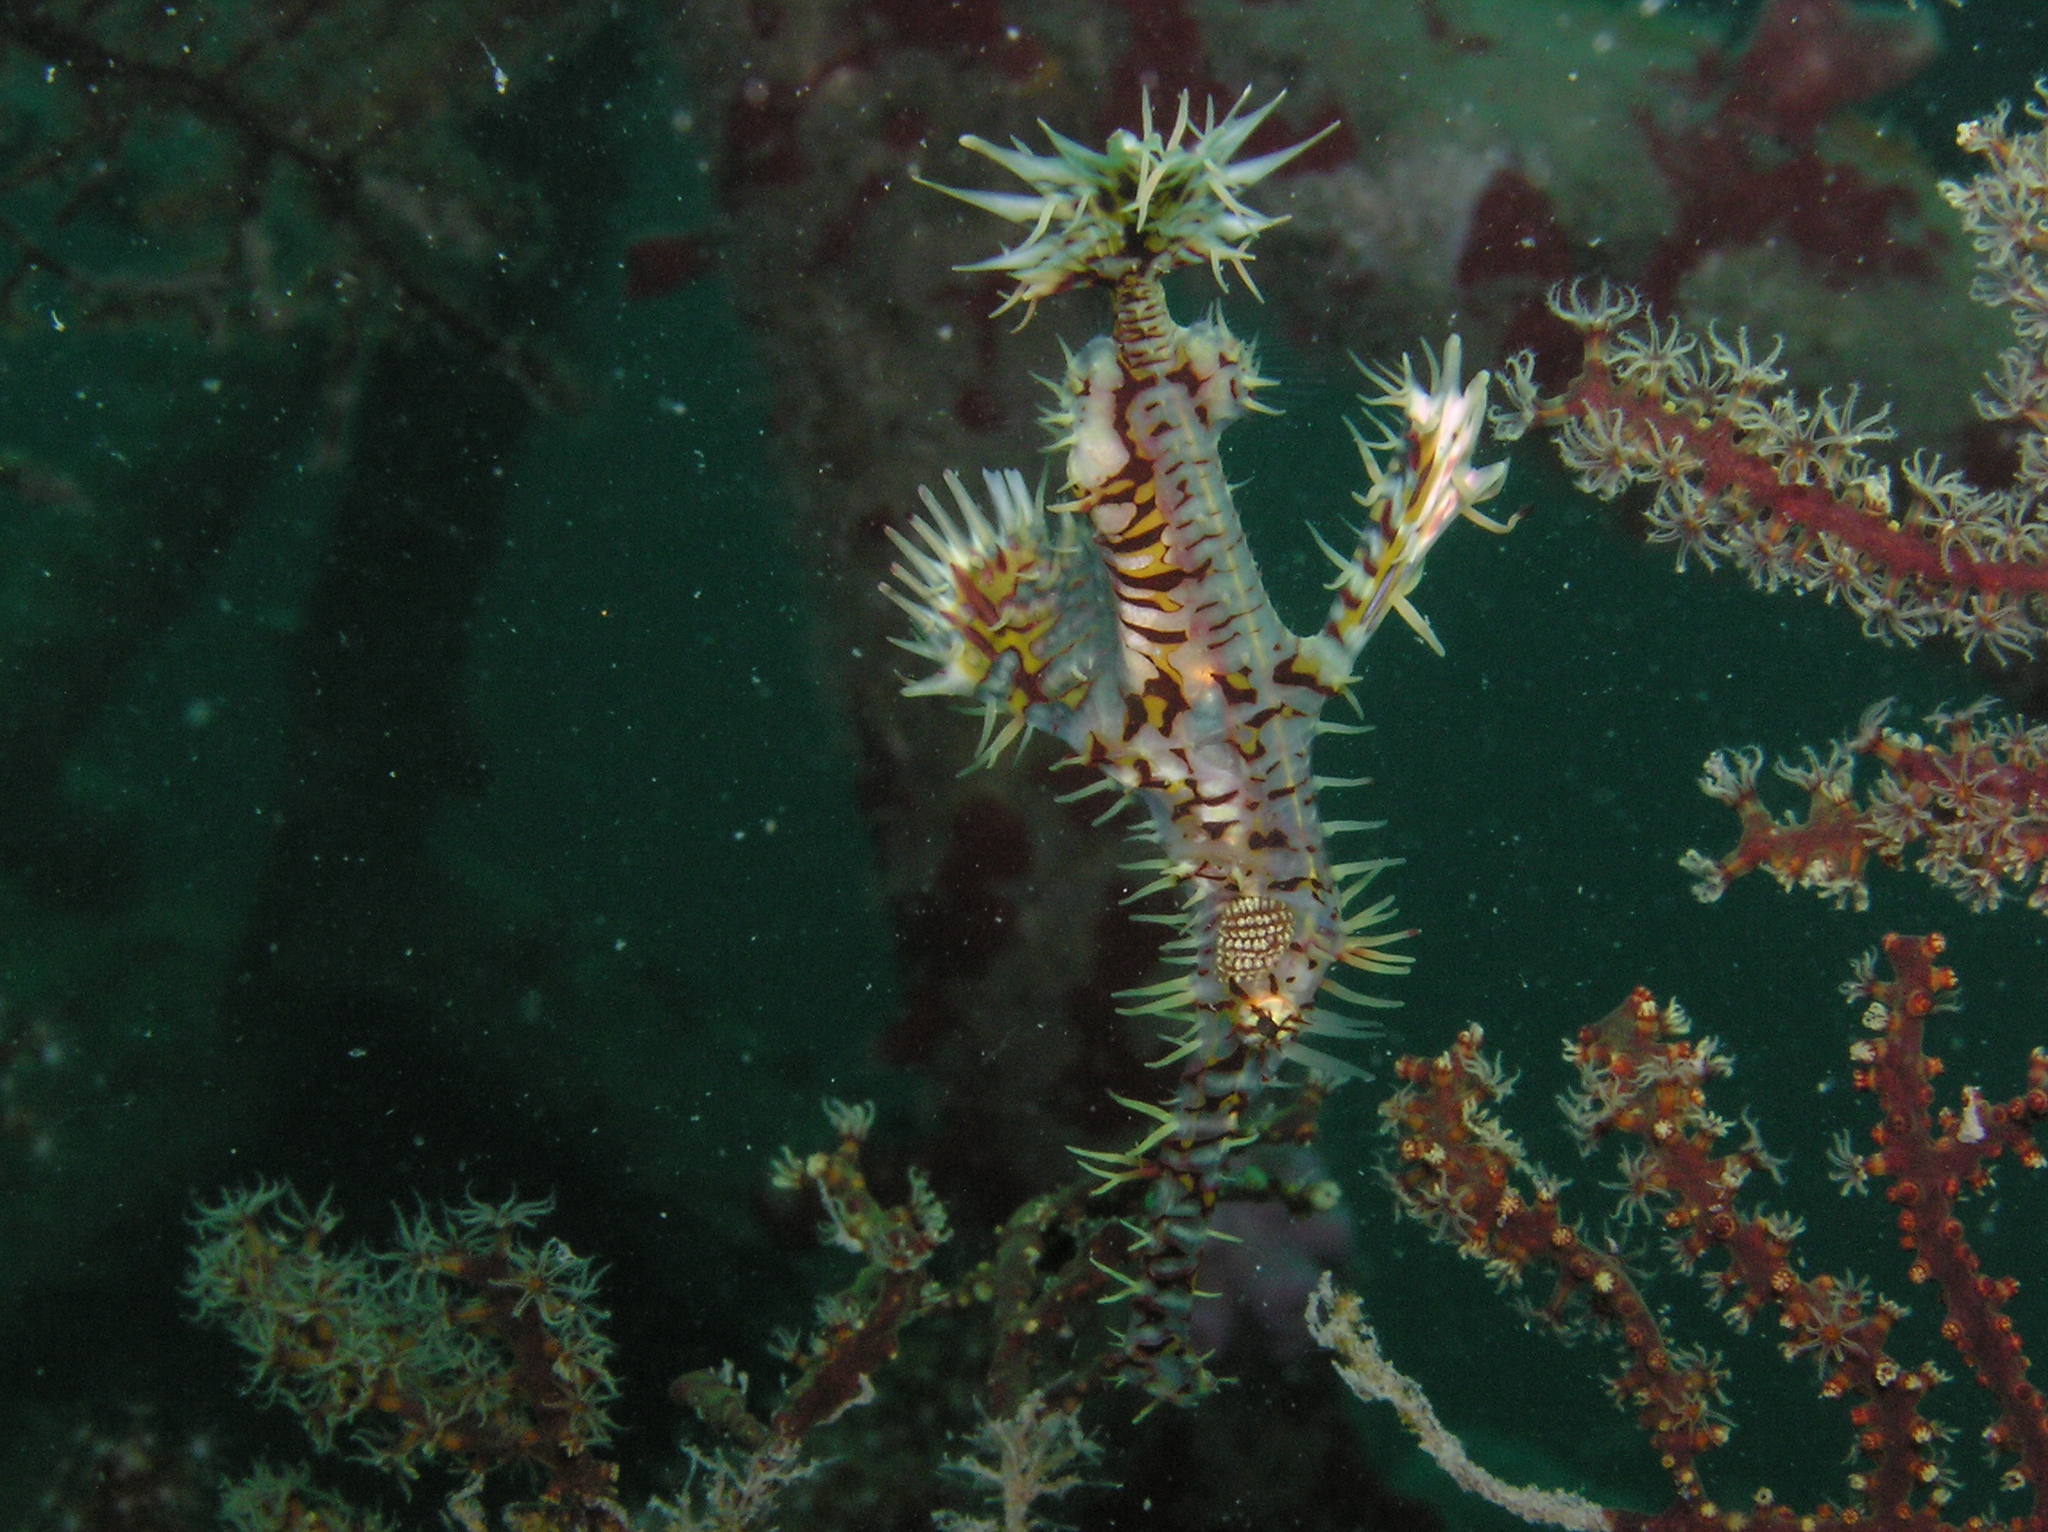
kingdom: Animalia
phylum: Chordata
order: Syngnathiformes
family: Solenostomidae
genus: Solenostomus
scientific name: Solenostomus paradoxus
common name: Ghost pipefish
